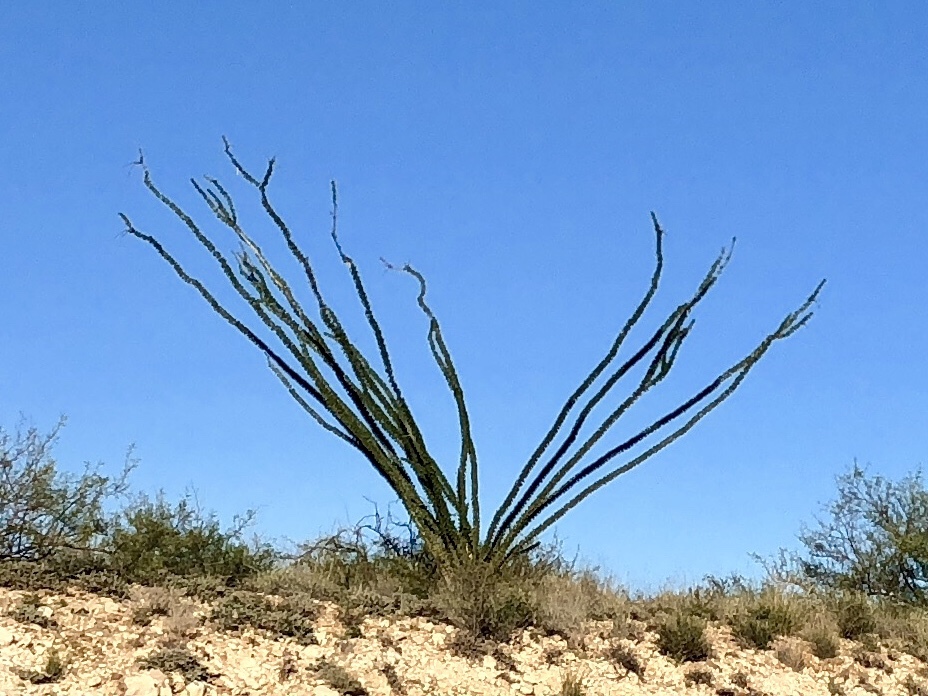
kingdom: Plantae
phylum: Tracheophyta
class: Magnoliopsida
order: Ericales
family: Fouquieriaceae
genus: Fouquieria
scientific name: Fouquieria splendens
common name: Vine-cactus
